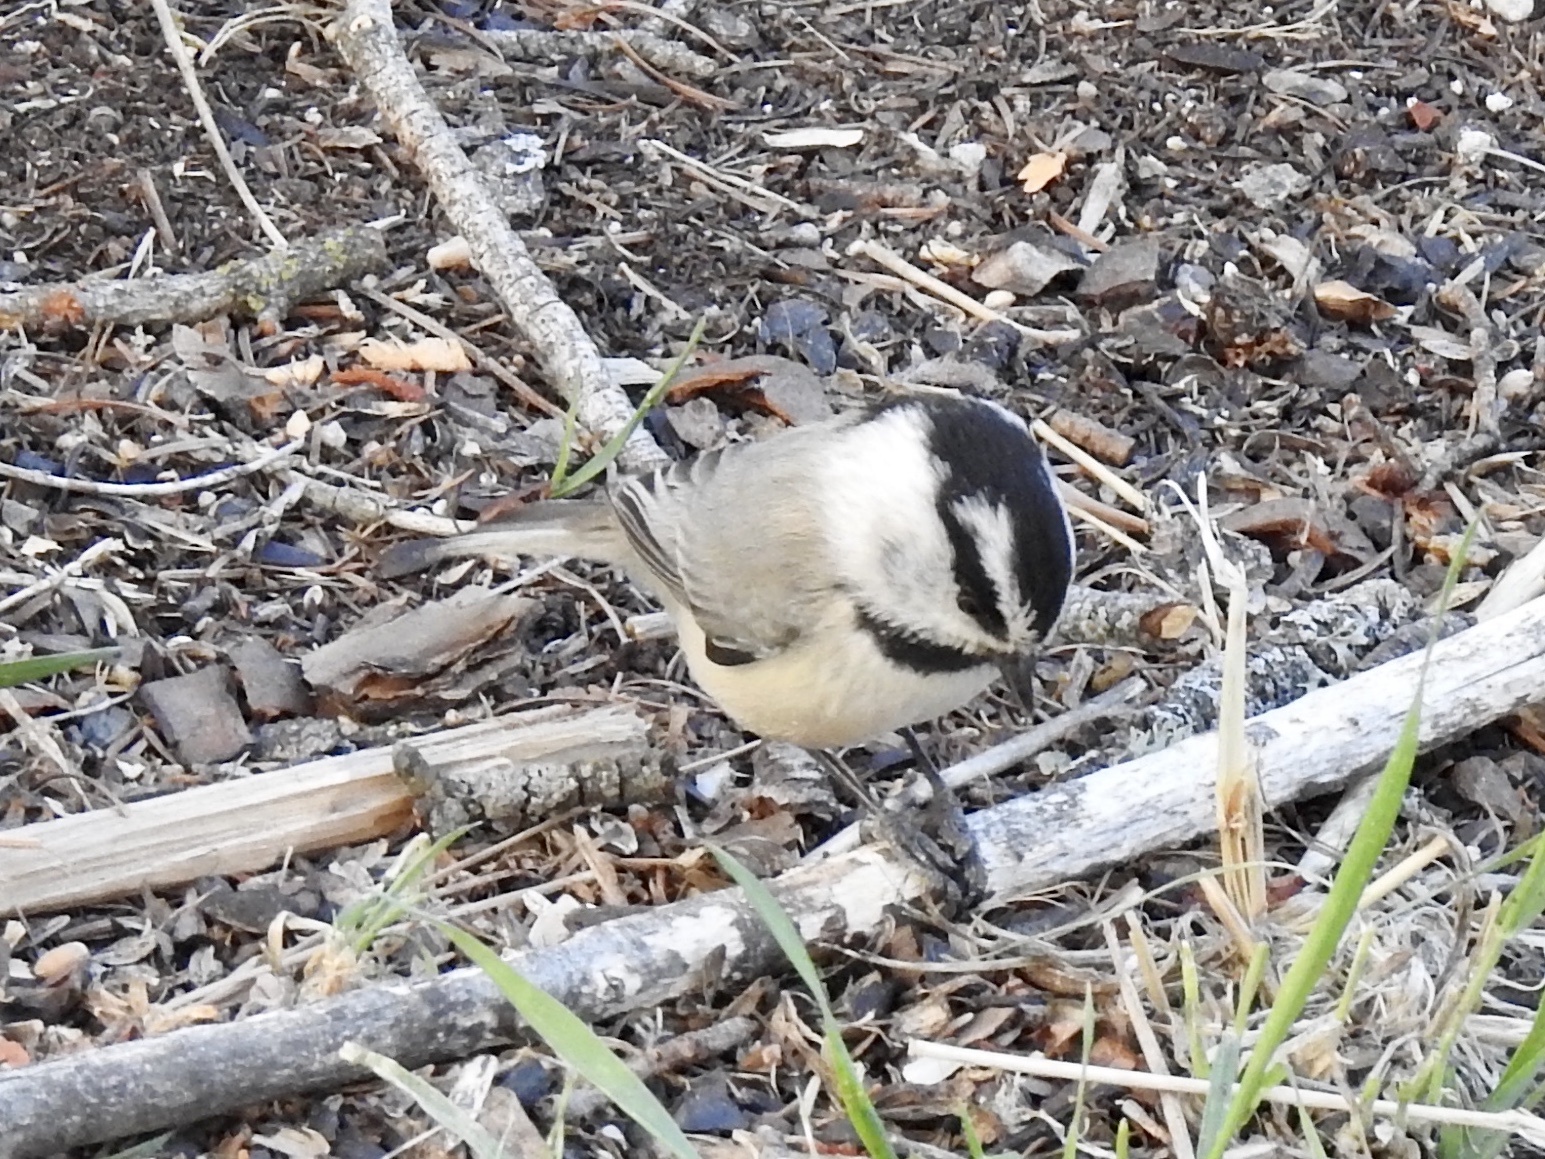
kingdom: Animalia
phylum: Chordata
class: Aves
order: Passeriformes
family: Paridae
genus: Poecile
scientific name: Poecile gambeli
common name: Mountain chickadee
